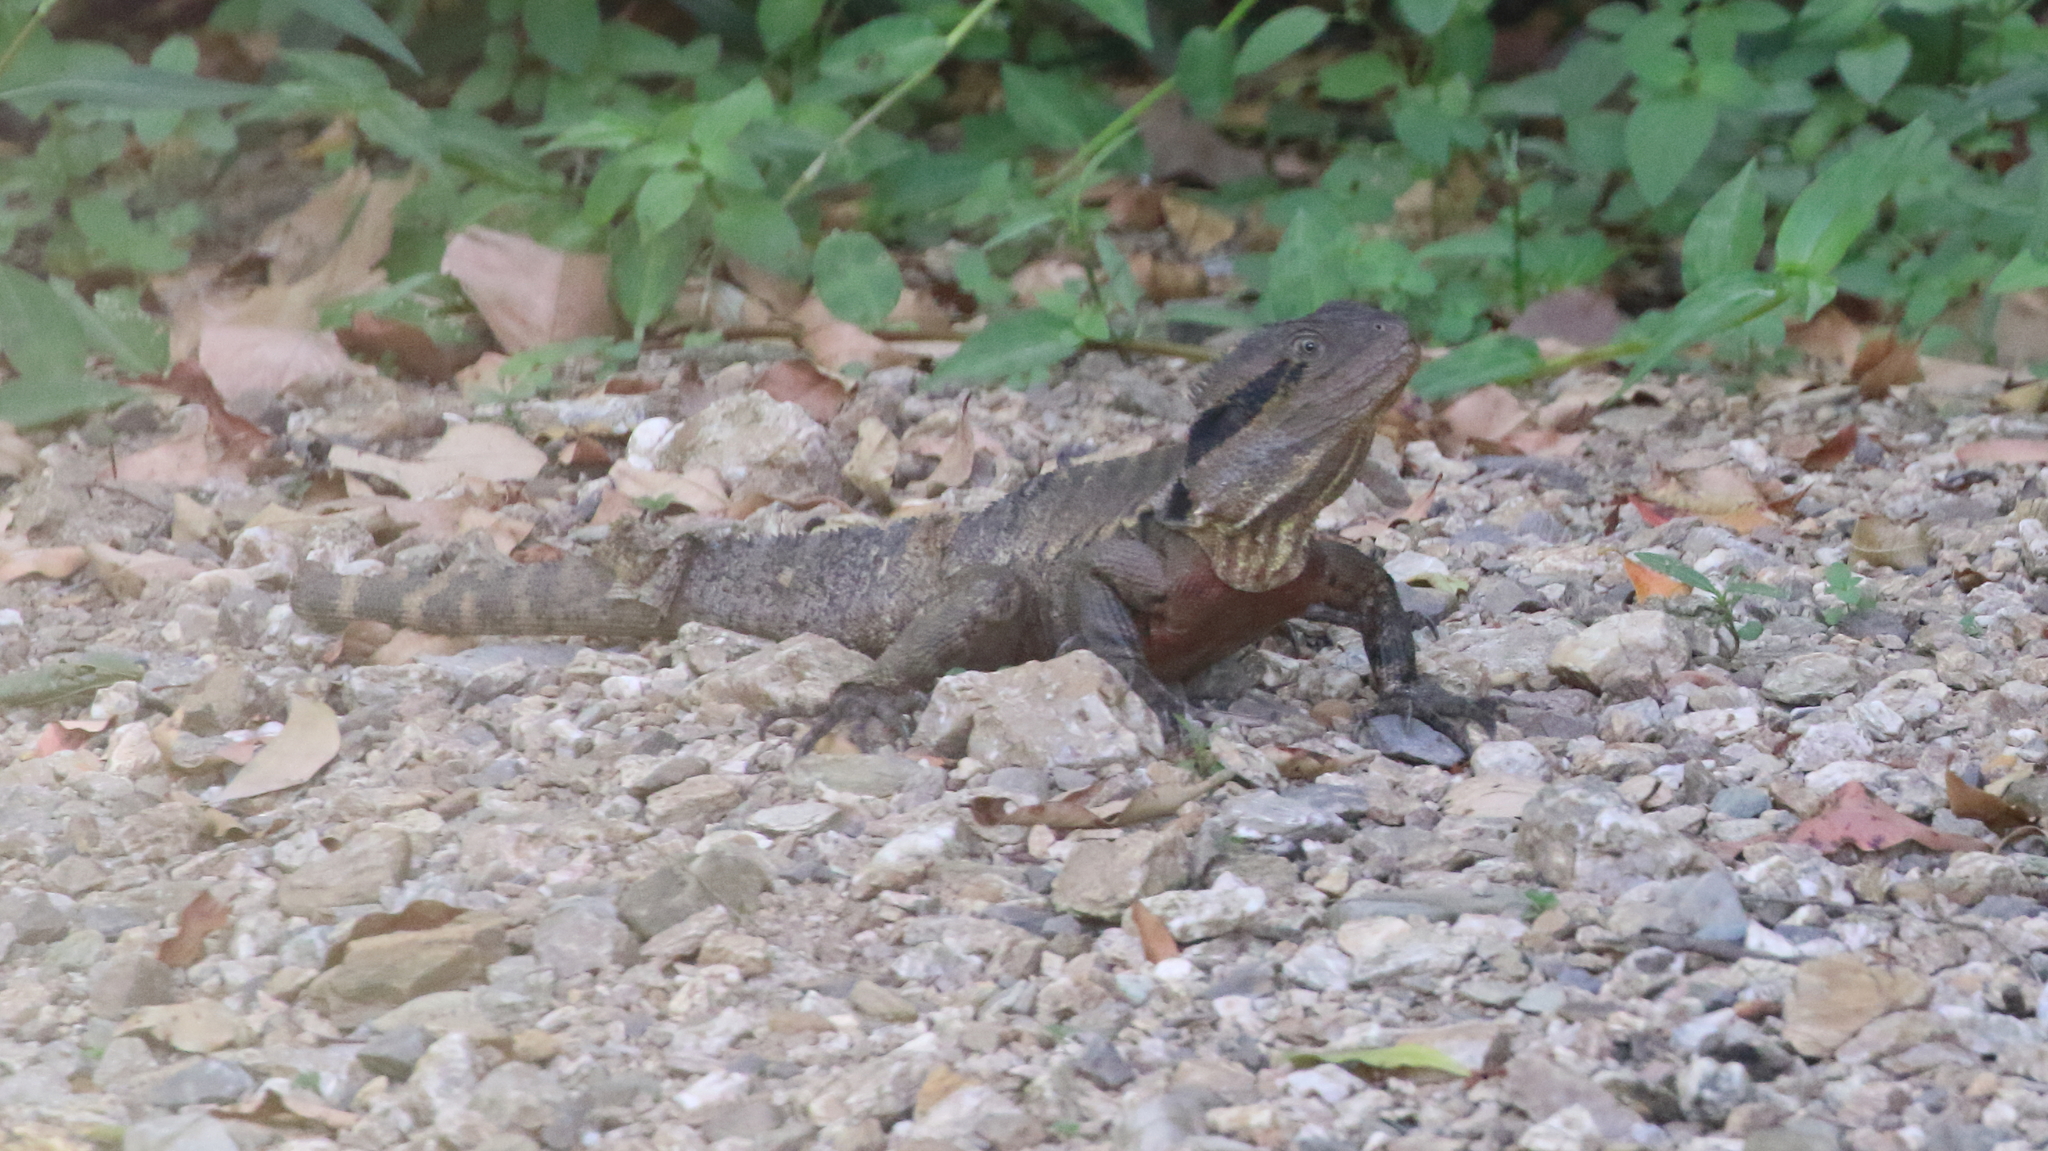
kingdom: Animalia
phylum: Chordata
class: Squamata
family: Agamidae
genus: Intellagama
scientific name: Intellagama lesueurii
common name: Eastern water dragon
